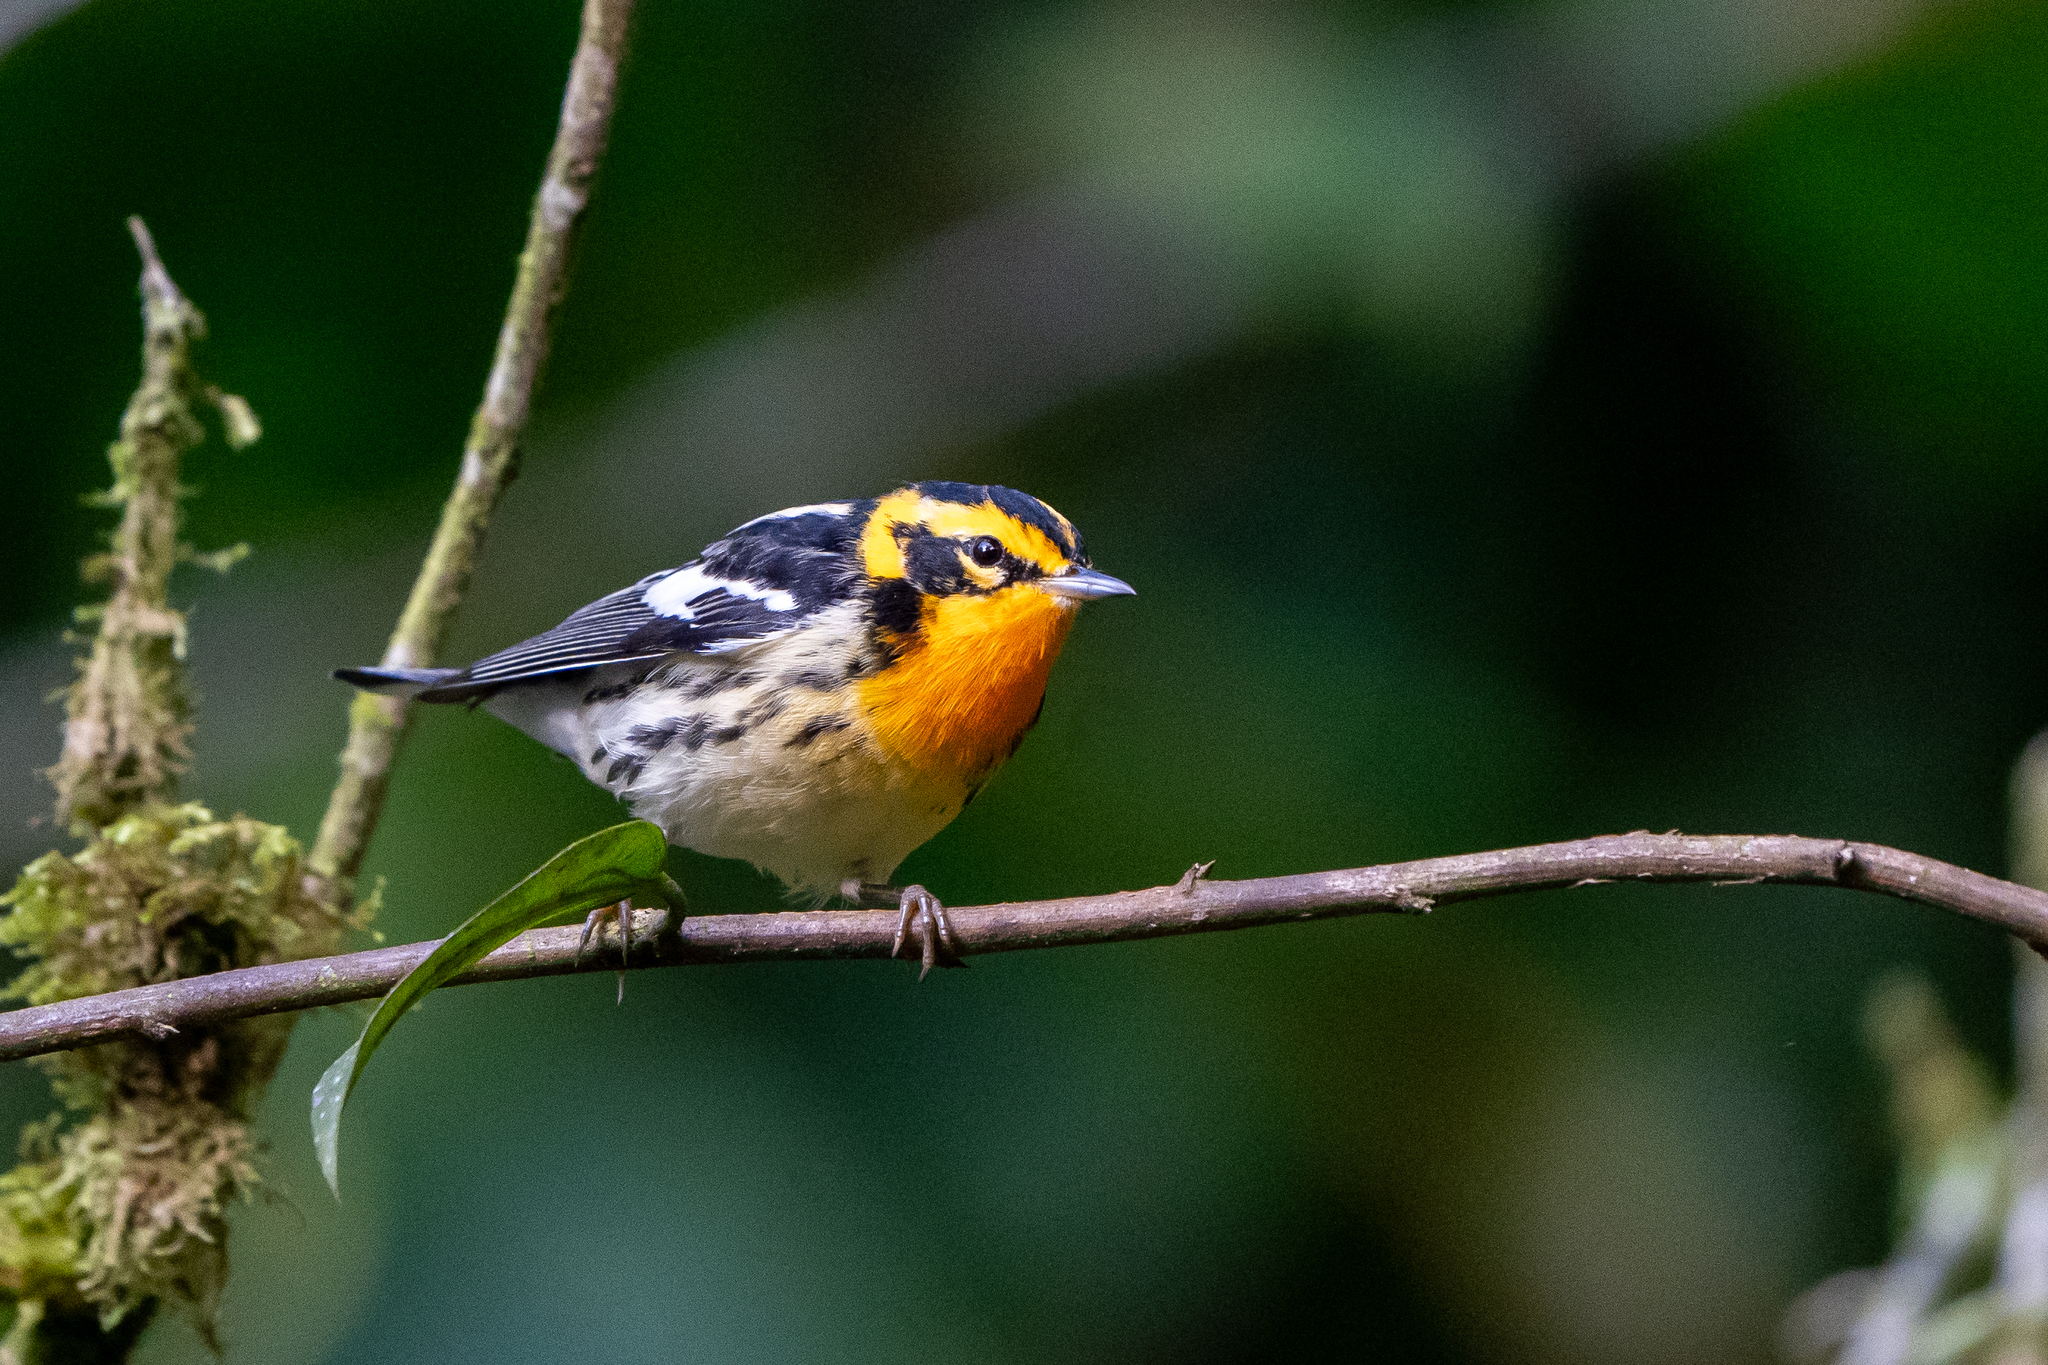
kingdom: Animalia
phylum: Chordata
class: Aves
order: Passeriformes
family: Parulidae
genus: Setophaga
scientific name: Setophaga fusca
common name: Blackburnian warbler
